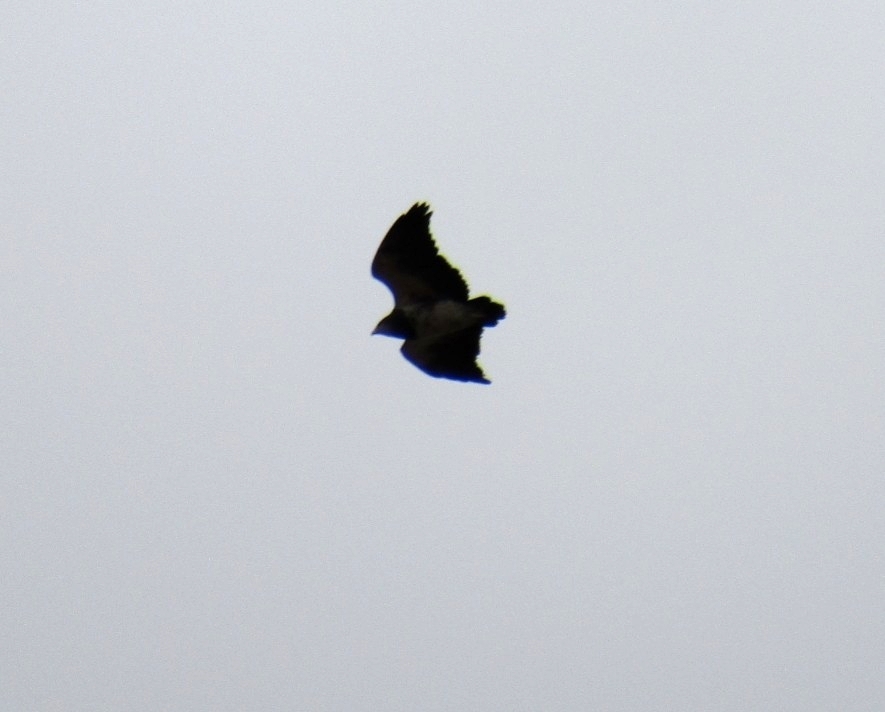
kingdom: Animalia
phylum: Chordata
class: Aves
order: Accipitriformes
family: Accipitridae
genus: Geranoaetus
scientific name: Geranoaetus melanoleucus
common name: Black-chested buzzard-eagle
